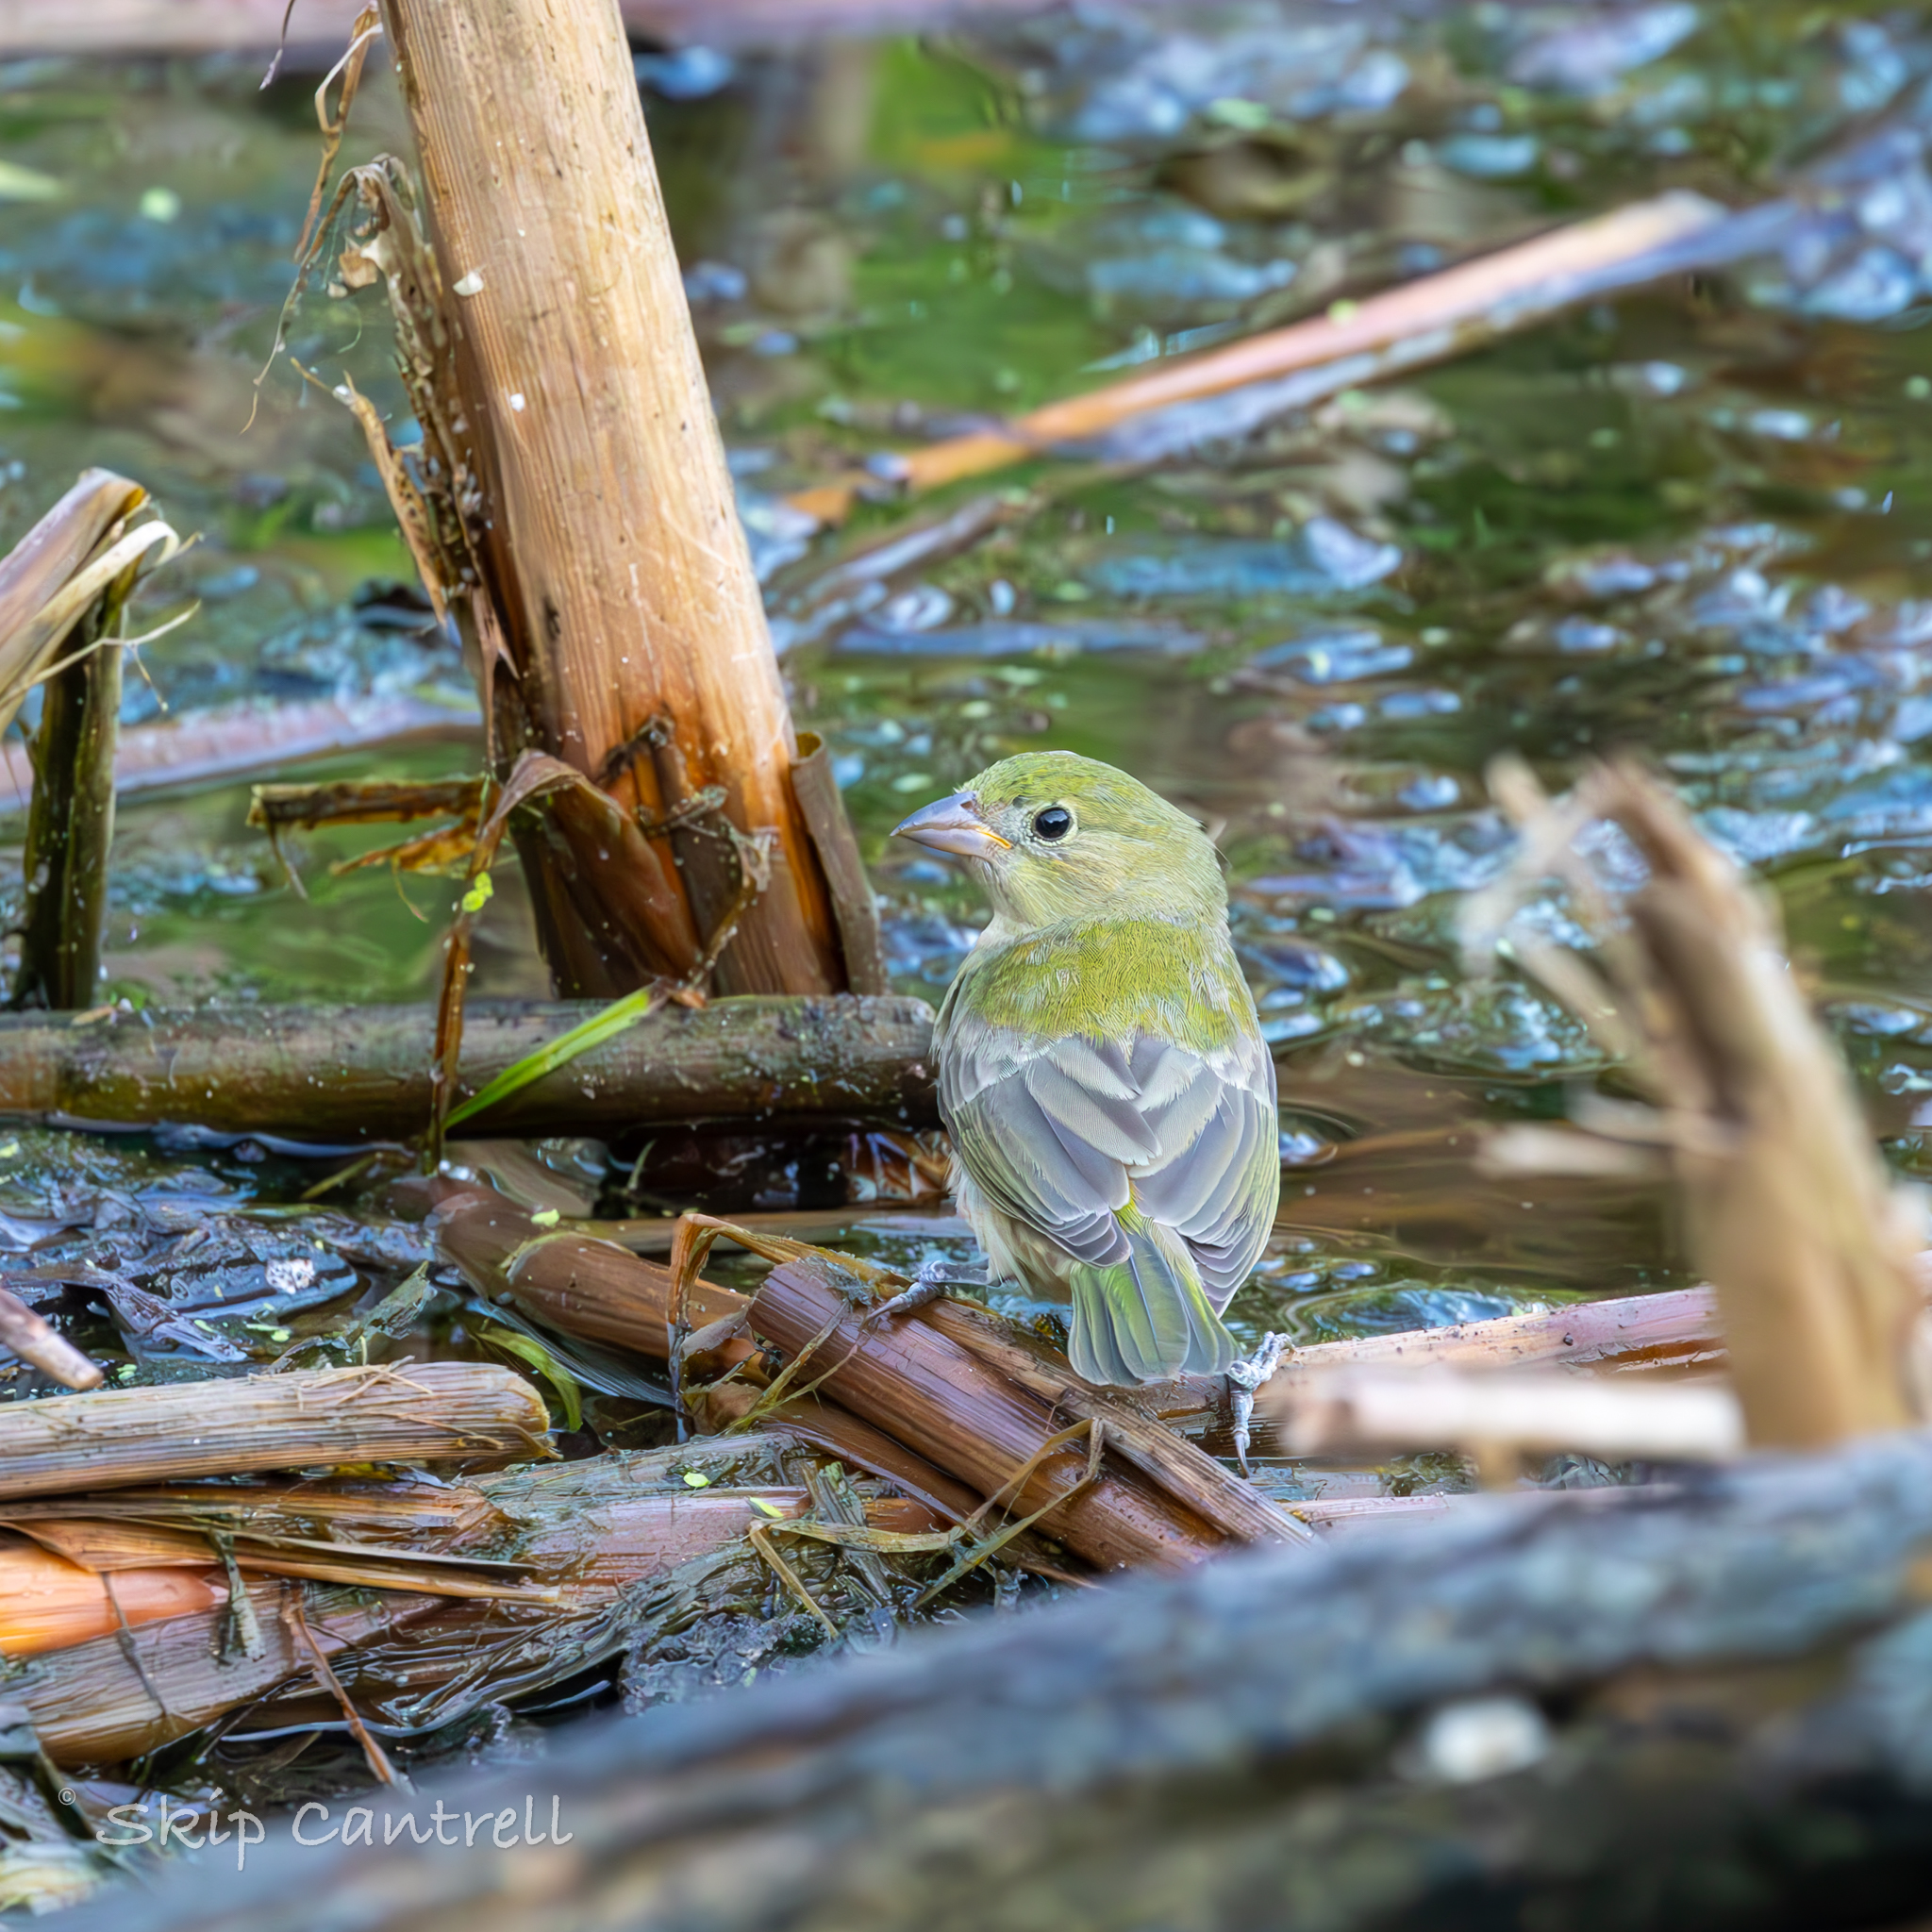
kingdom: Animalia
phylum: Chordata
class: Aves
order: Passeriformes
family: Cardinalidae
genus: Passerina
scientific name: Passerina ciris
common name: Painted bunting
